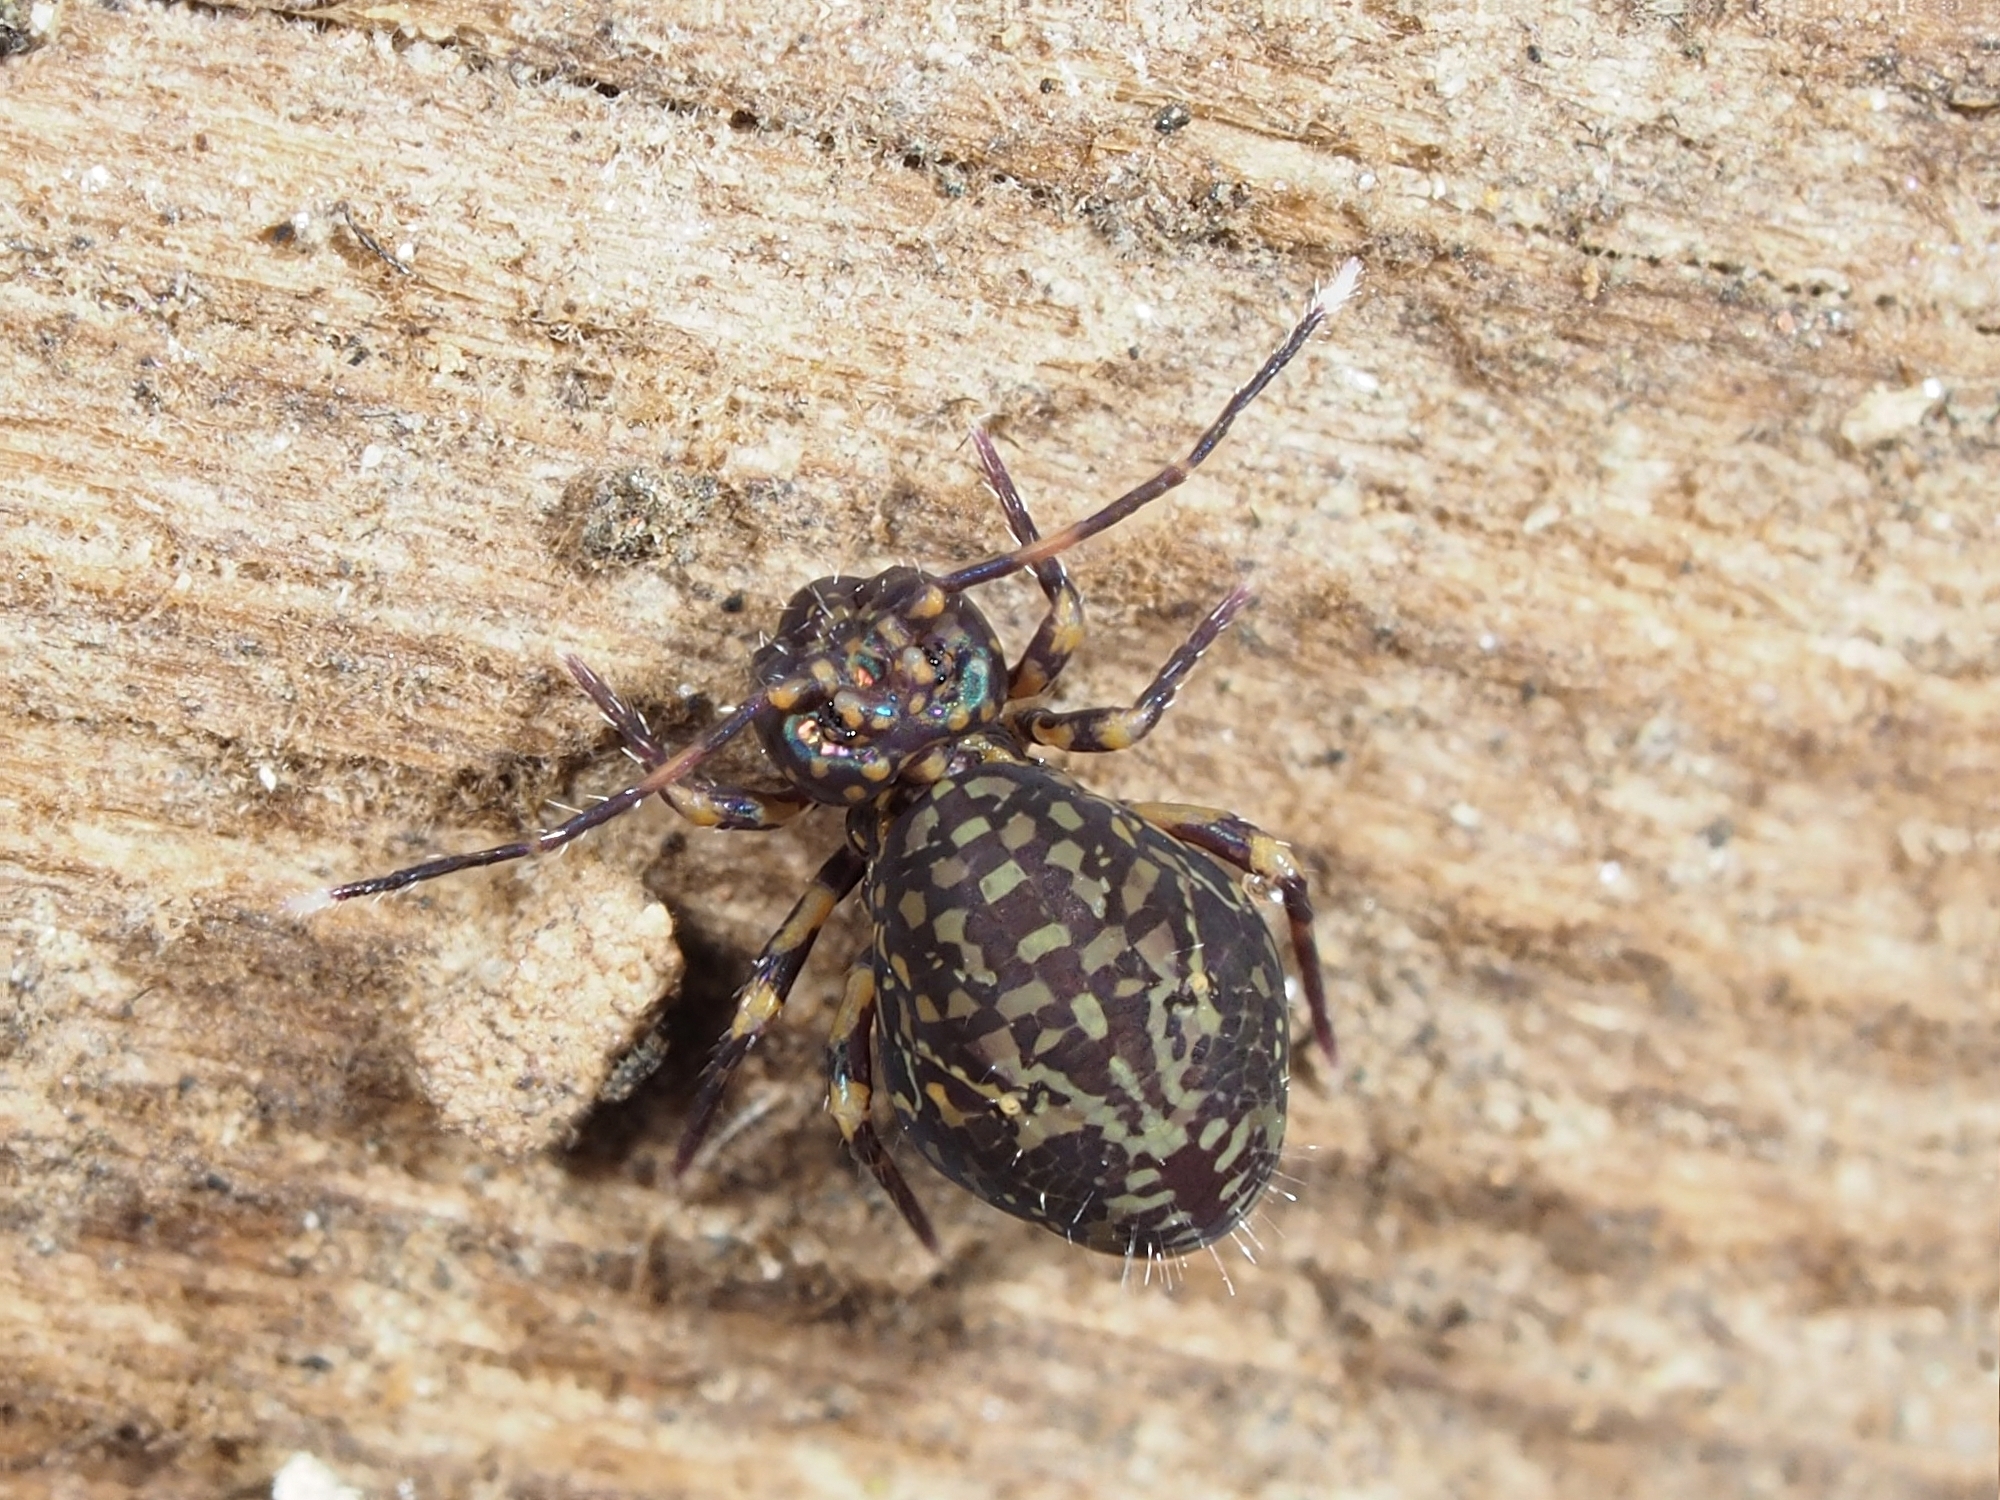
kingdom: Animalia
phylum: Arthropoda
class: Collembola
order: Symphypleona
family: Dicyrtomidae
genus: Ptenothrix
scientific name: Ptenothrix alveola
